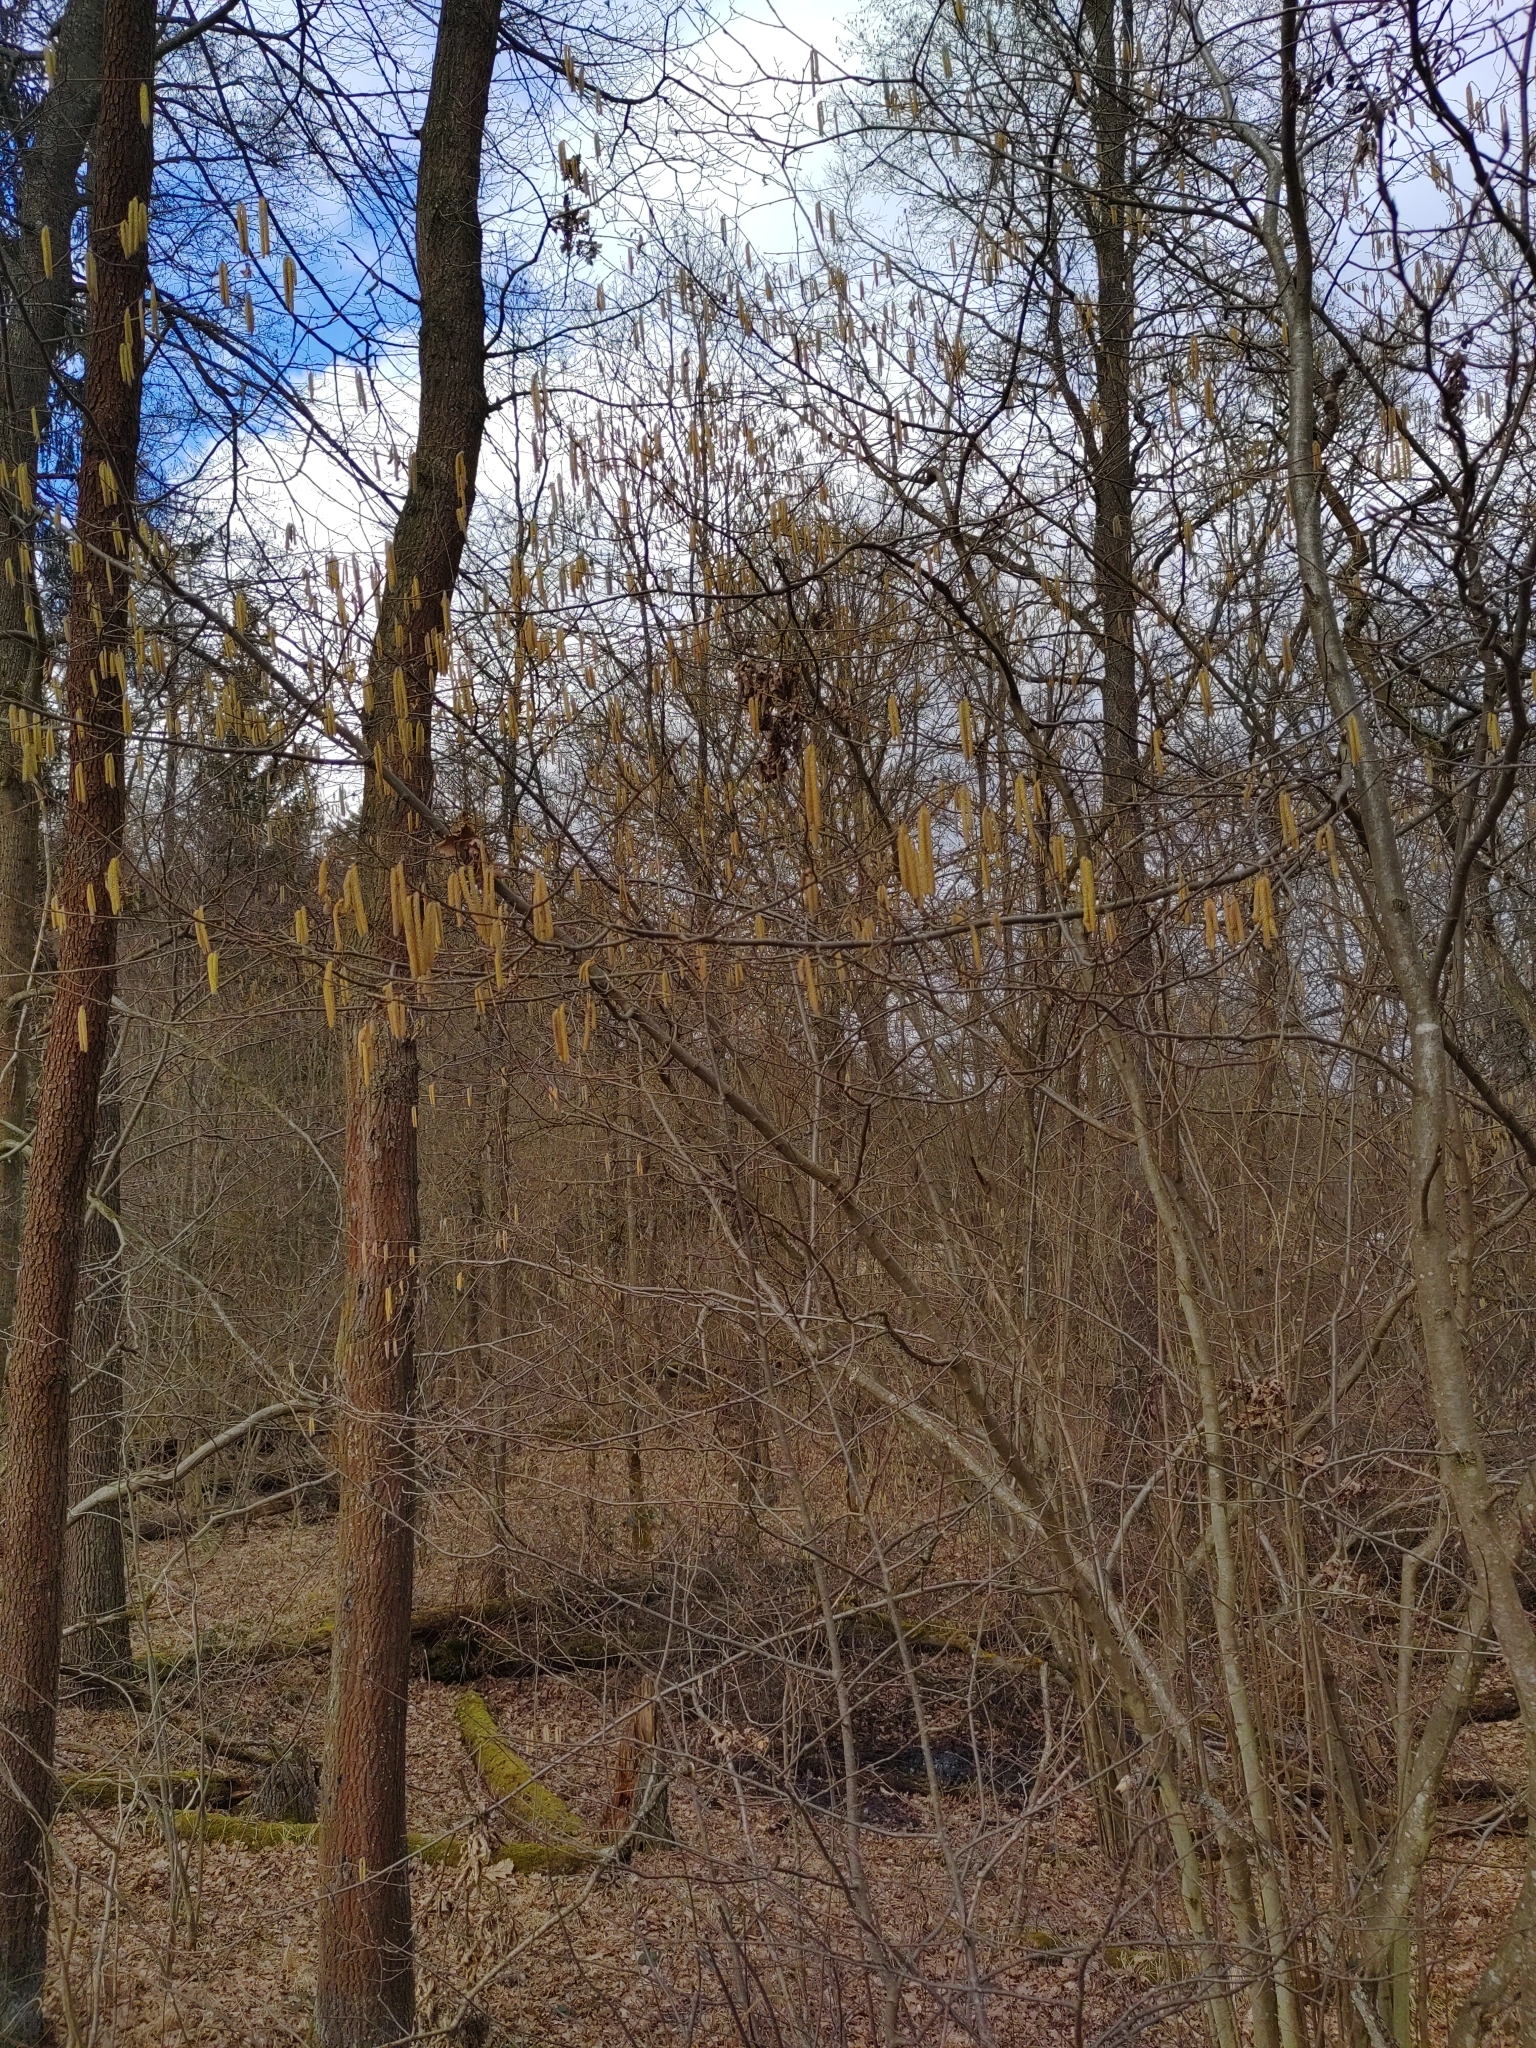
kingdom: Plantae
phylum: Tracheophyta
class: Magnoliopsida
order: Fagales
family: Betulaceae
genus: Corylus
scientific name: Corylus avellana
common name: European hazel
